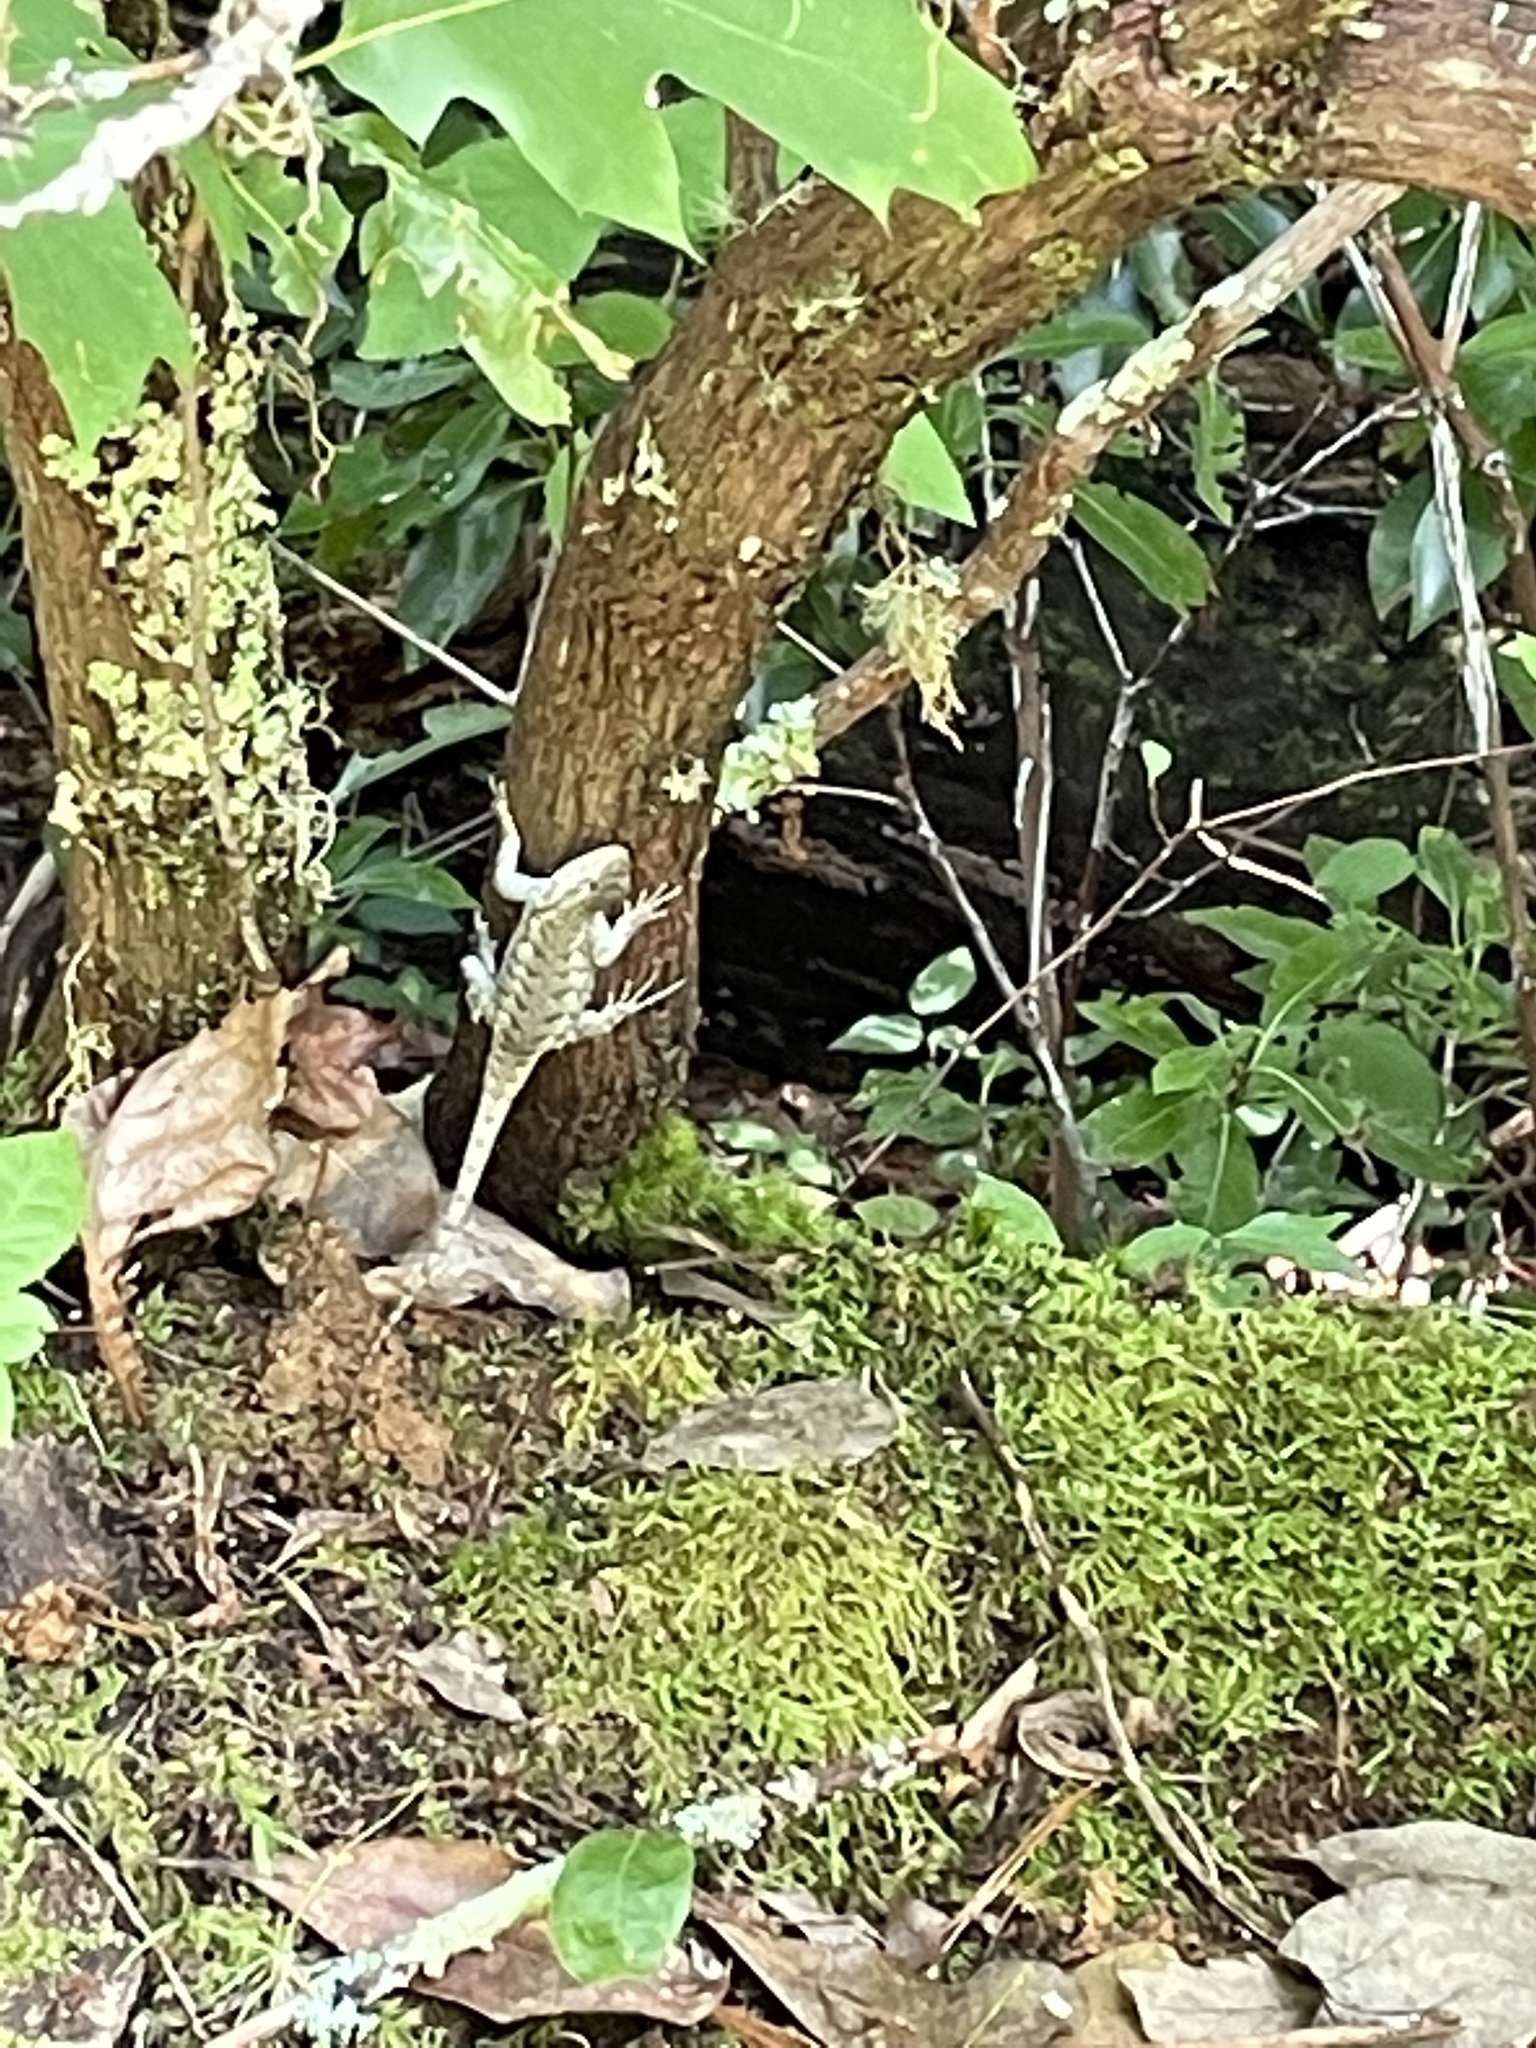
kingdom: Animalia
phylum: Chordata
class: Squamata
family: Phrynosomatidae
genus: Sceloporus
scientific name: Sceloporus undulatus
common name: Eastern fence lizard
